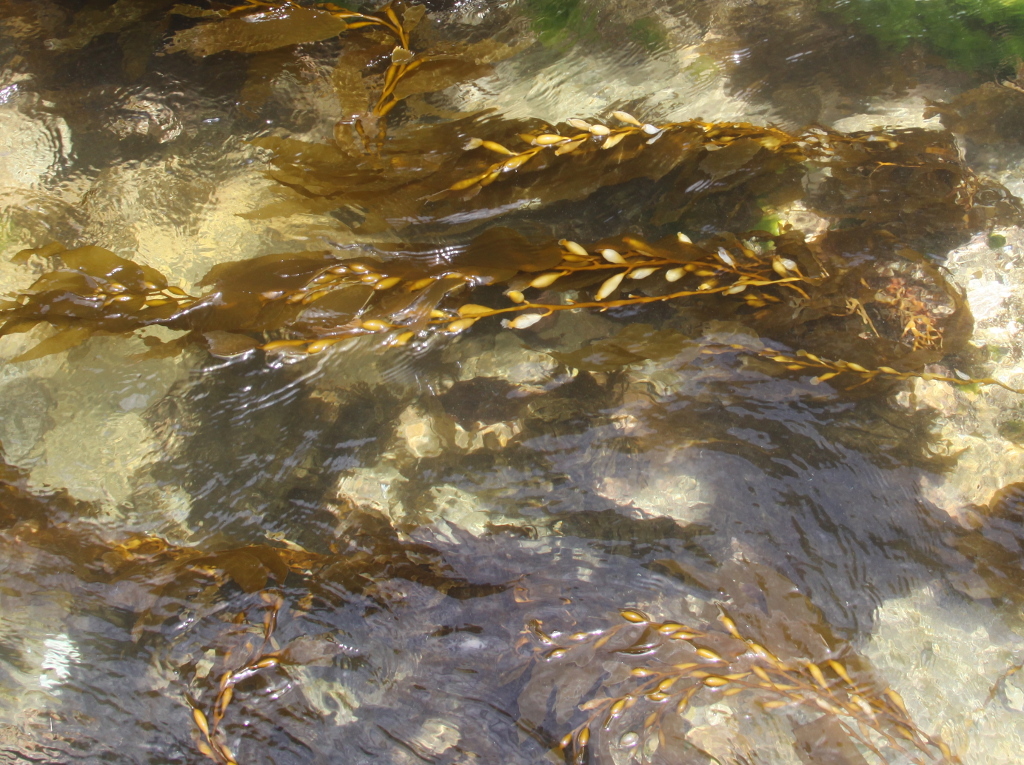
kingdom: Chromista
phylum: Ochrophyta
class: Phaeophyceae
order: Laminariales
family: Laminariaceae
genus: Macrocystis
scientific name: Macrocystis pyrifera
